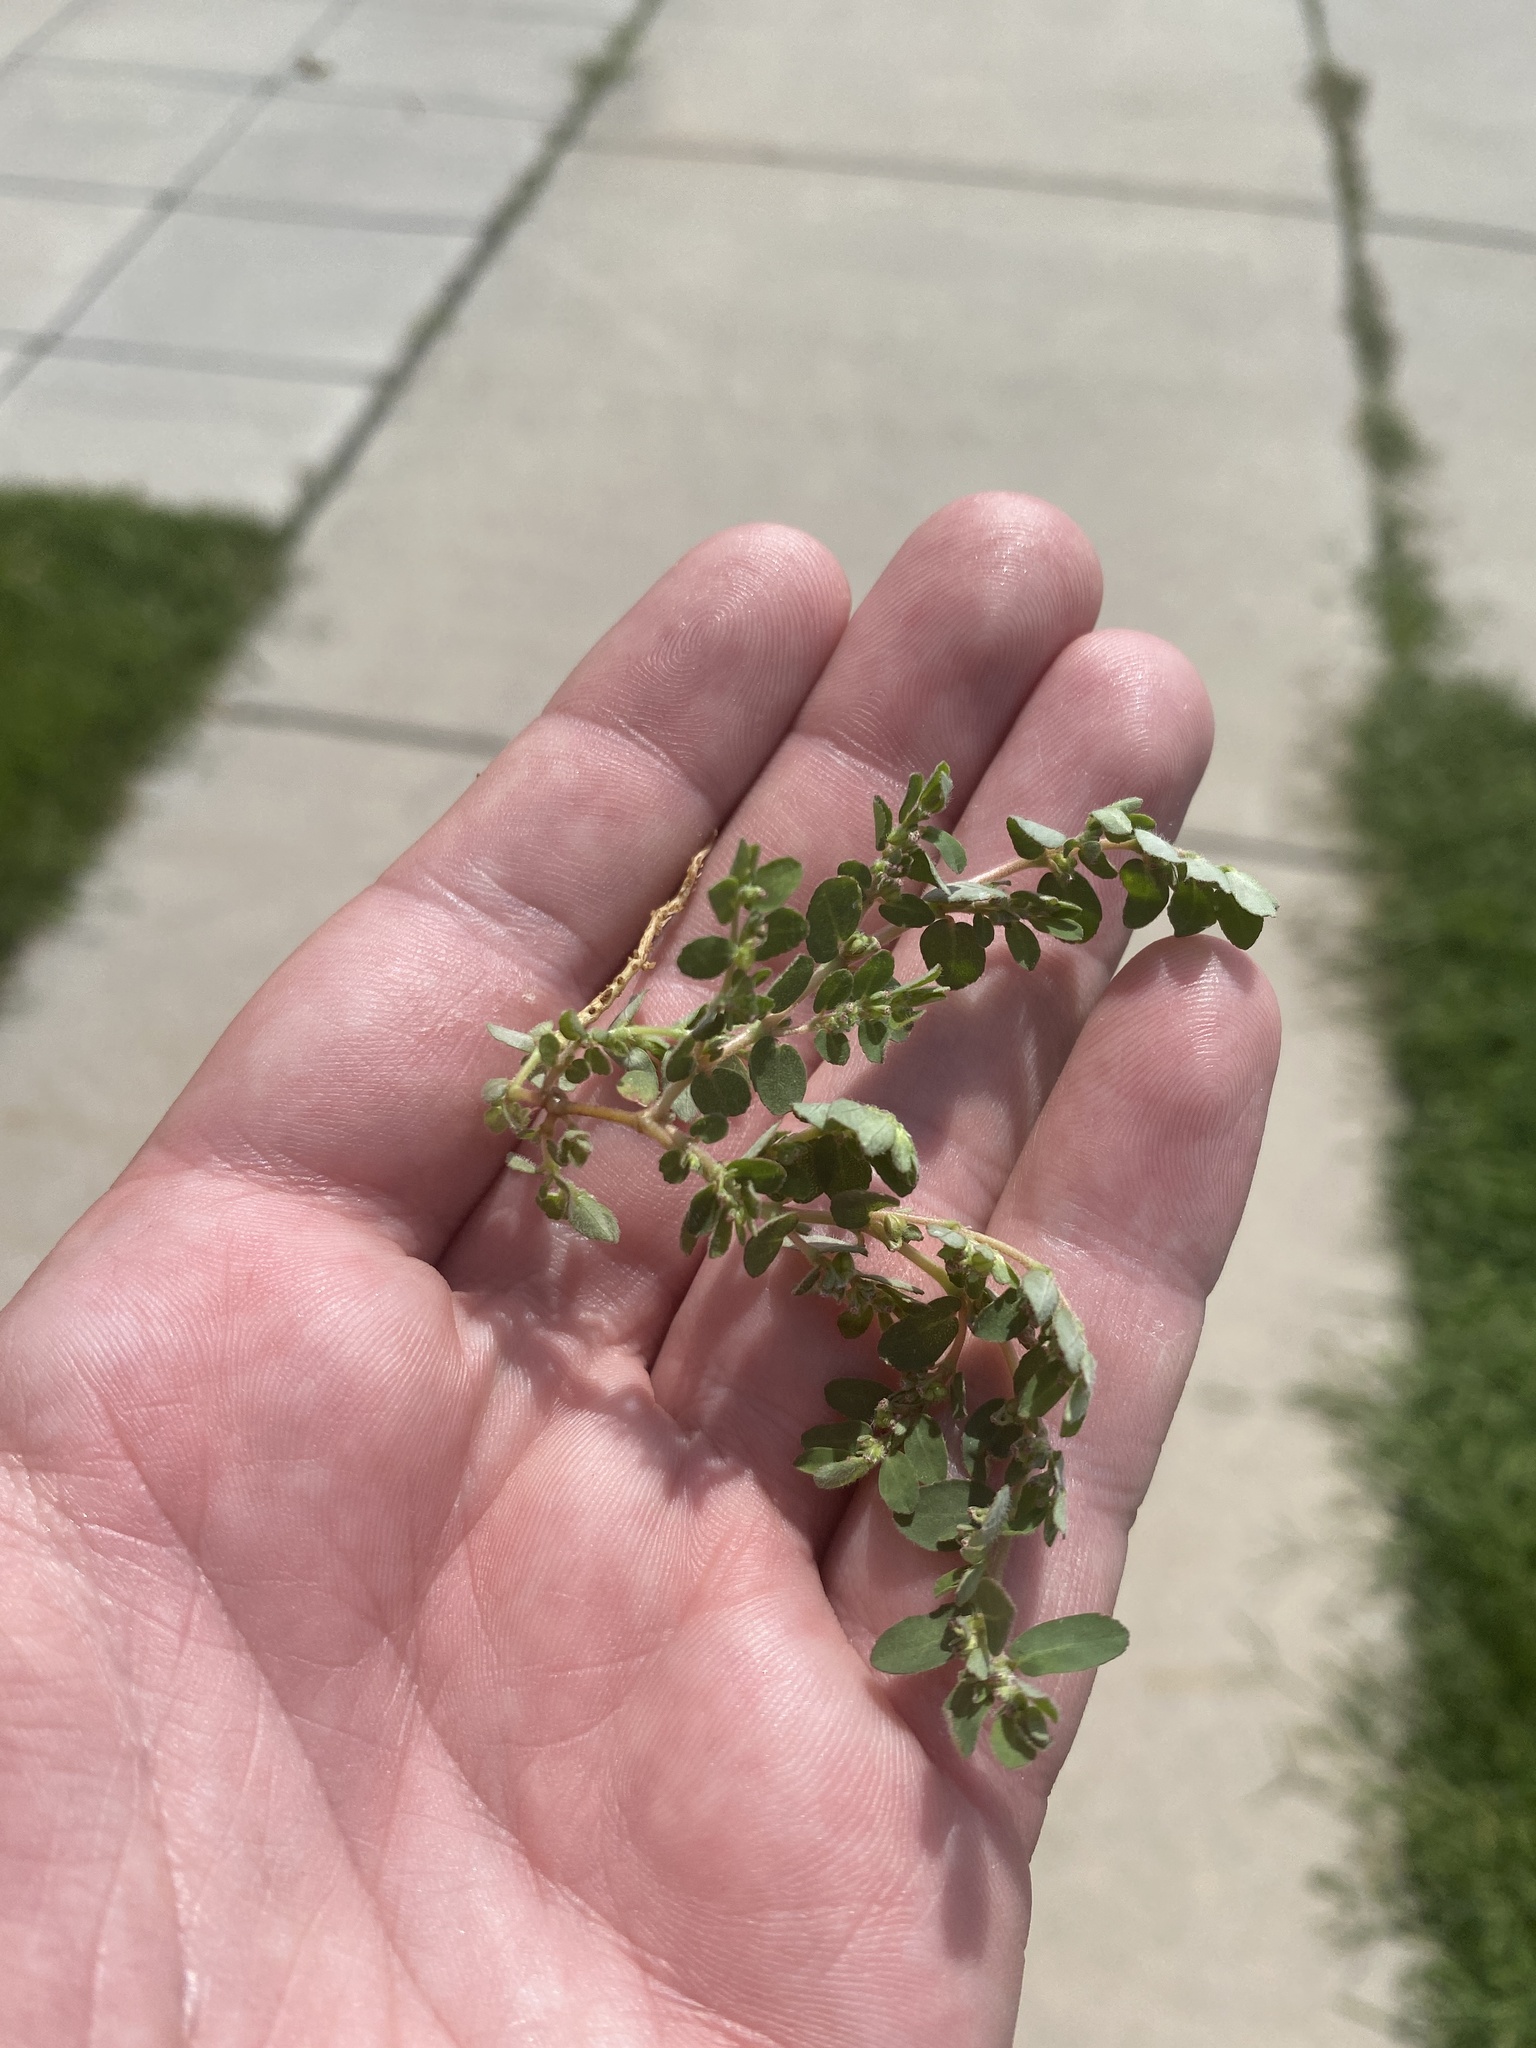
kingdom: Plantae
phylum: Tracheophyta
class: Magnoliopsida
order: Malpighiales
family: Euphorbiaceae
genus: Euphorbia
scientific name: Euphorbia prostrata
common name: Prostrate sandmat
